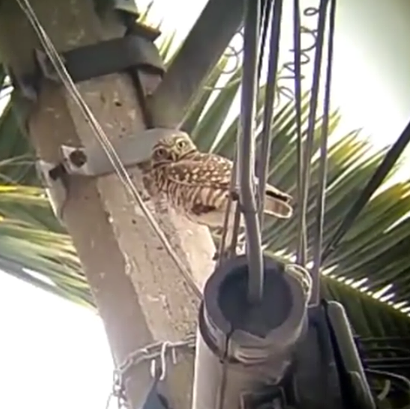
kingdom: Animalia
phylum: Chordata
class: Aves
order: Strigiformes
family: Strigidae
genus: Athene
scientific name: Athene cunicularia
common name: Burrowing owl
